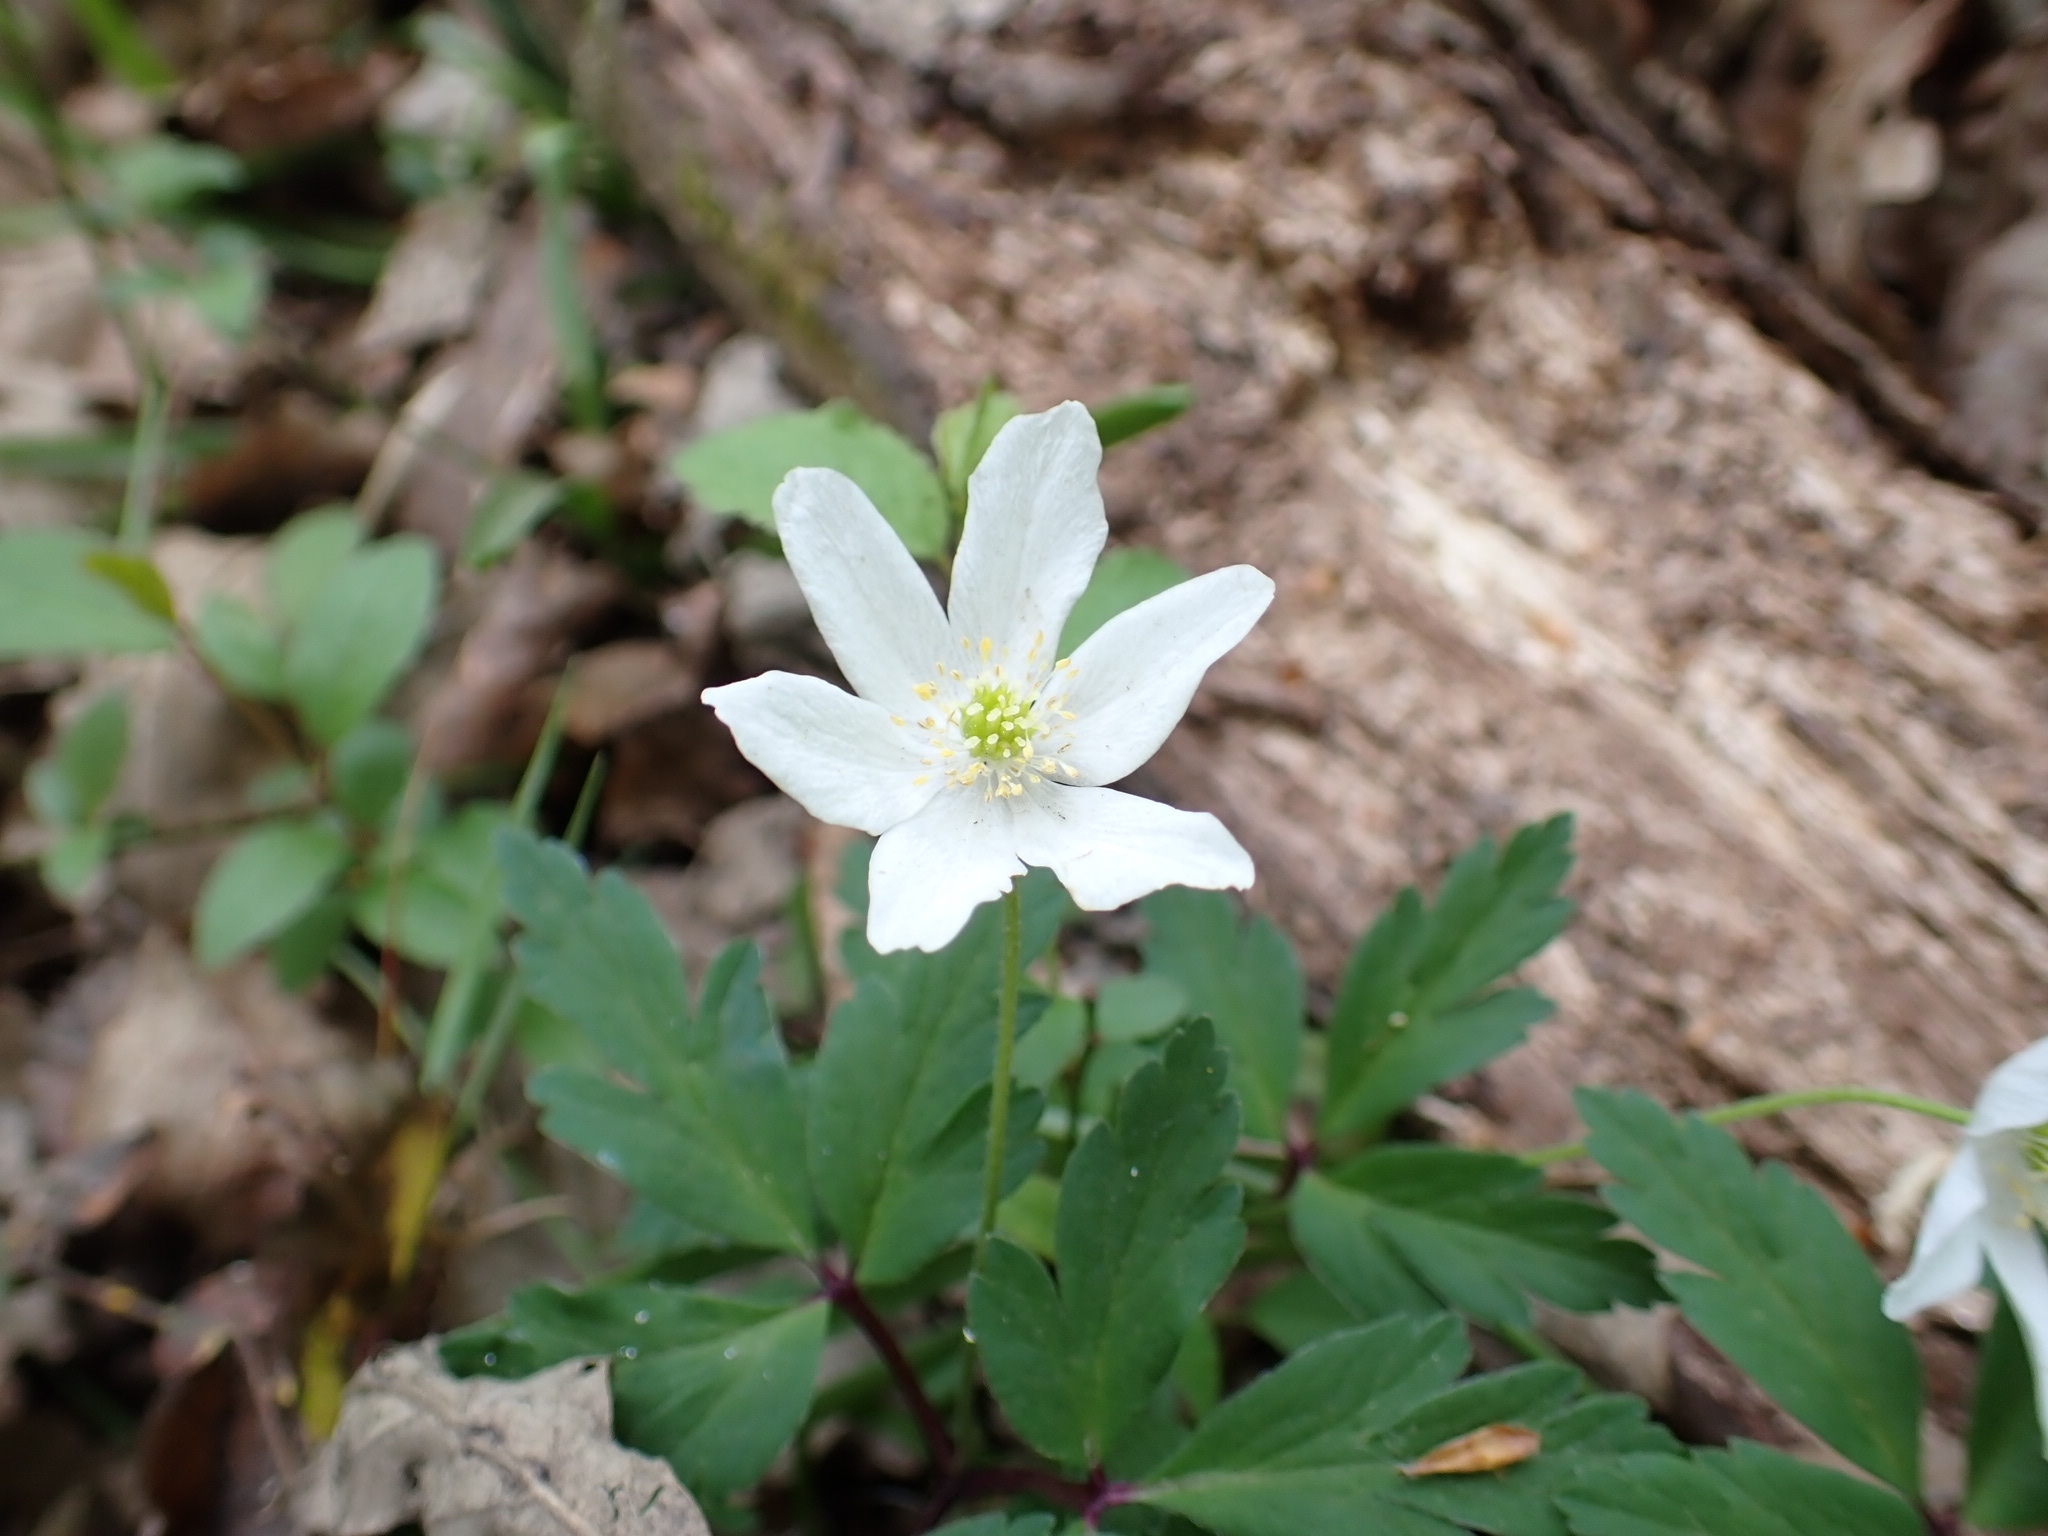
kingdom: Plantae
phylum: Tracheophyta
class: Magnoliopsida
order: Ranunculales
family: Ranunculaceae
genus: Anemone
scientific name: Anemone nemorosa
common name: Wood anemone
